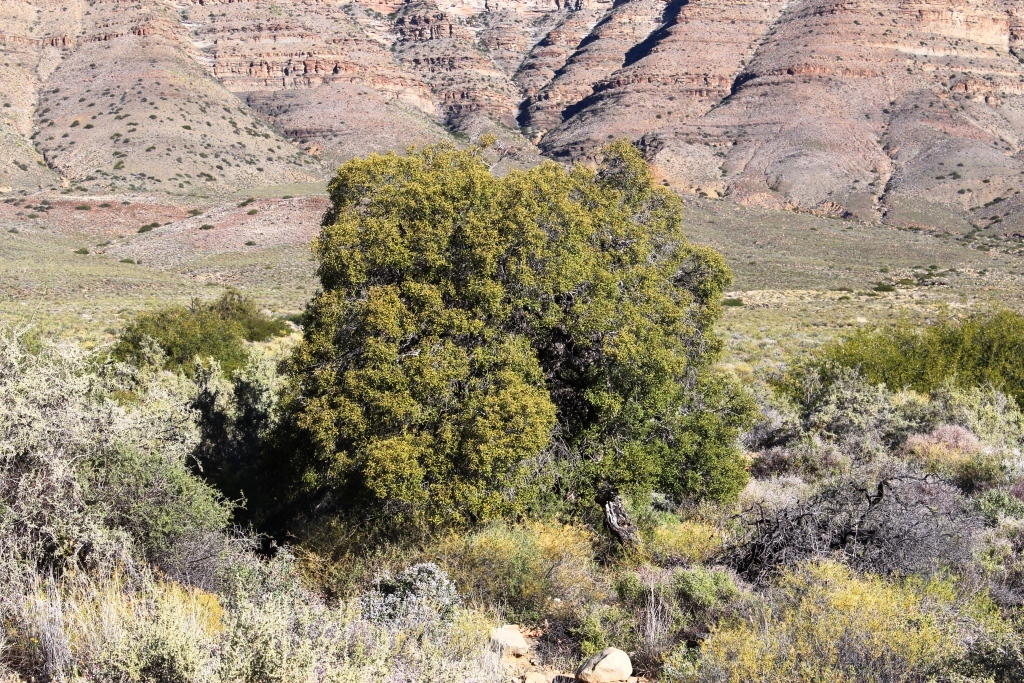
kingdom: Plantae
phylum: Tracheophyta
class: Magnoliopsida
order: Ericales
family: Ebenaceae
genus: Euclea
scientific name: Euclea undulata
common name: Small-leaved guarri
